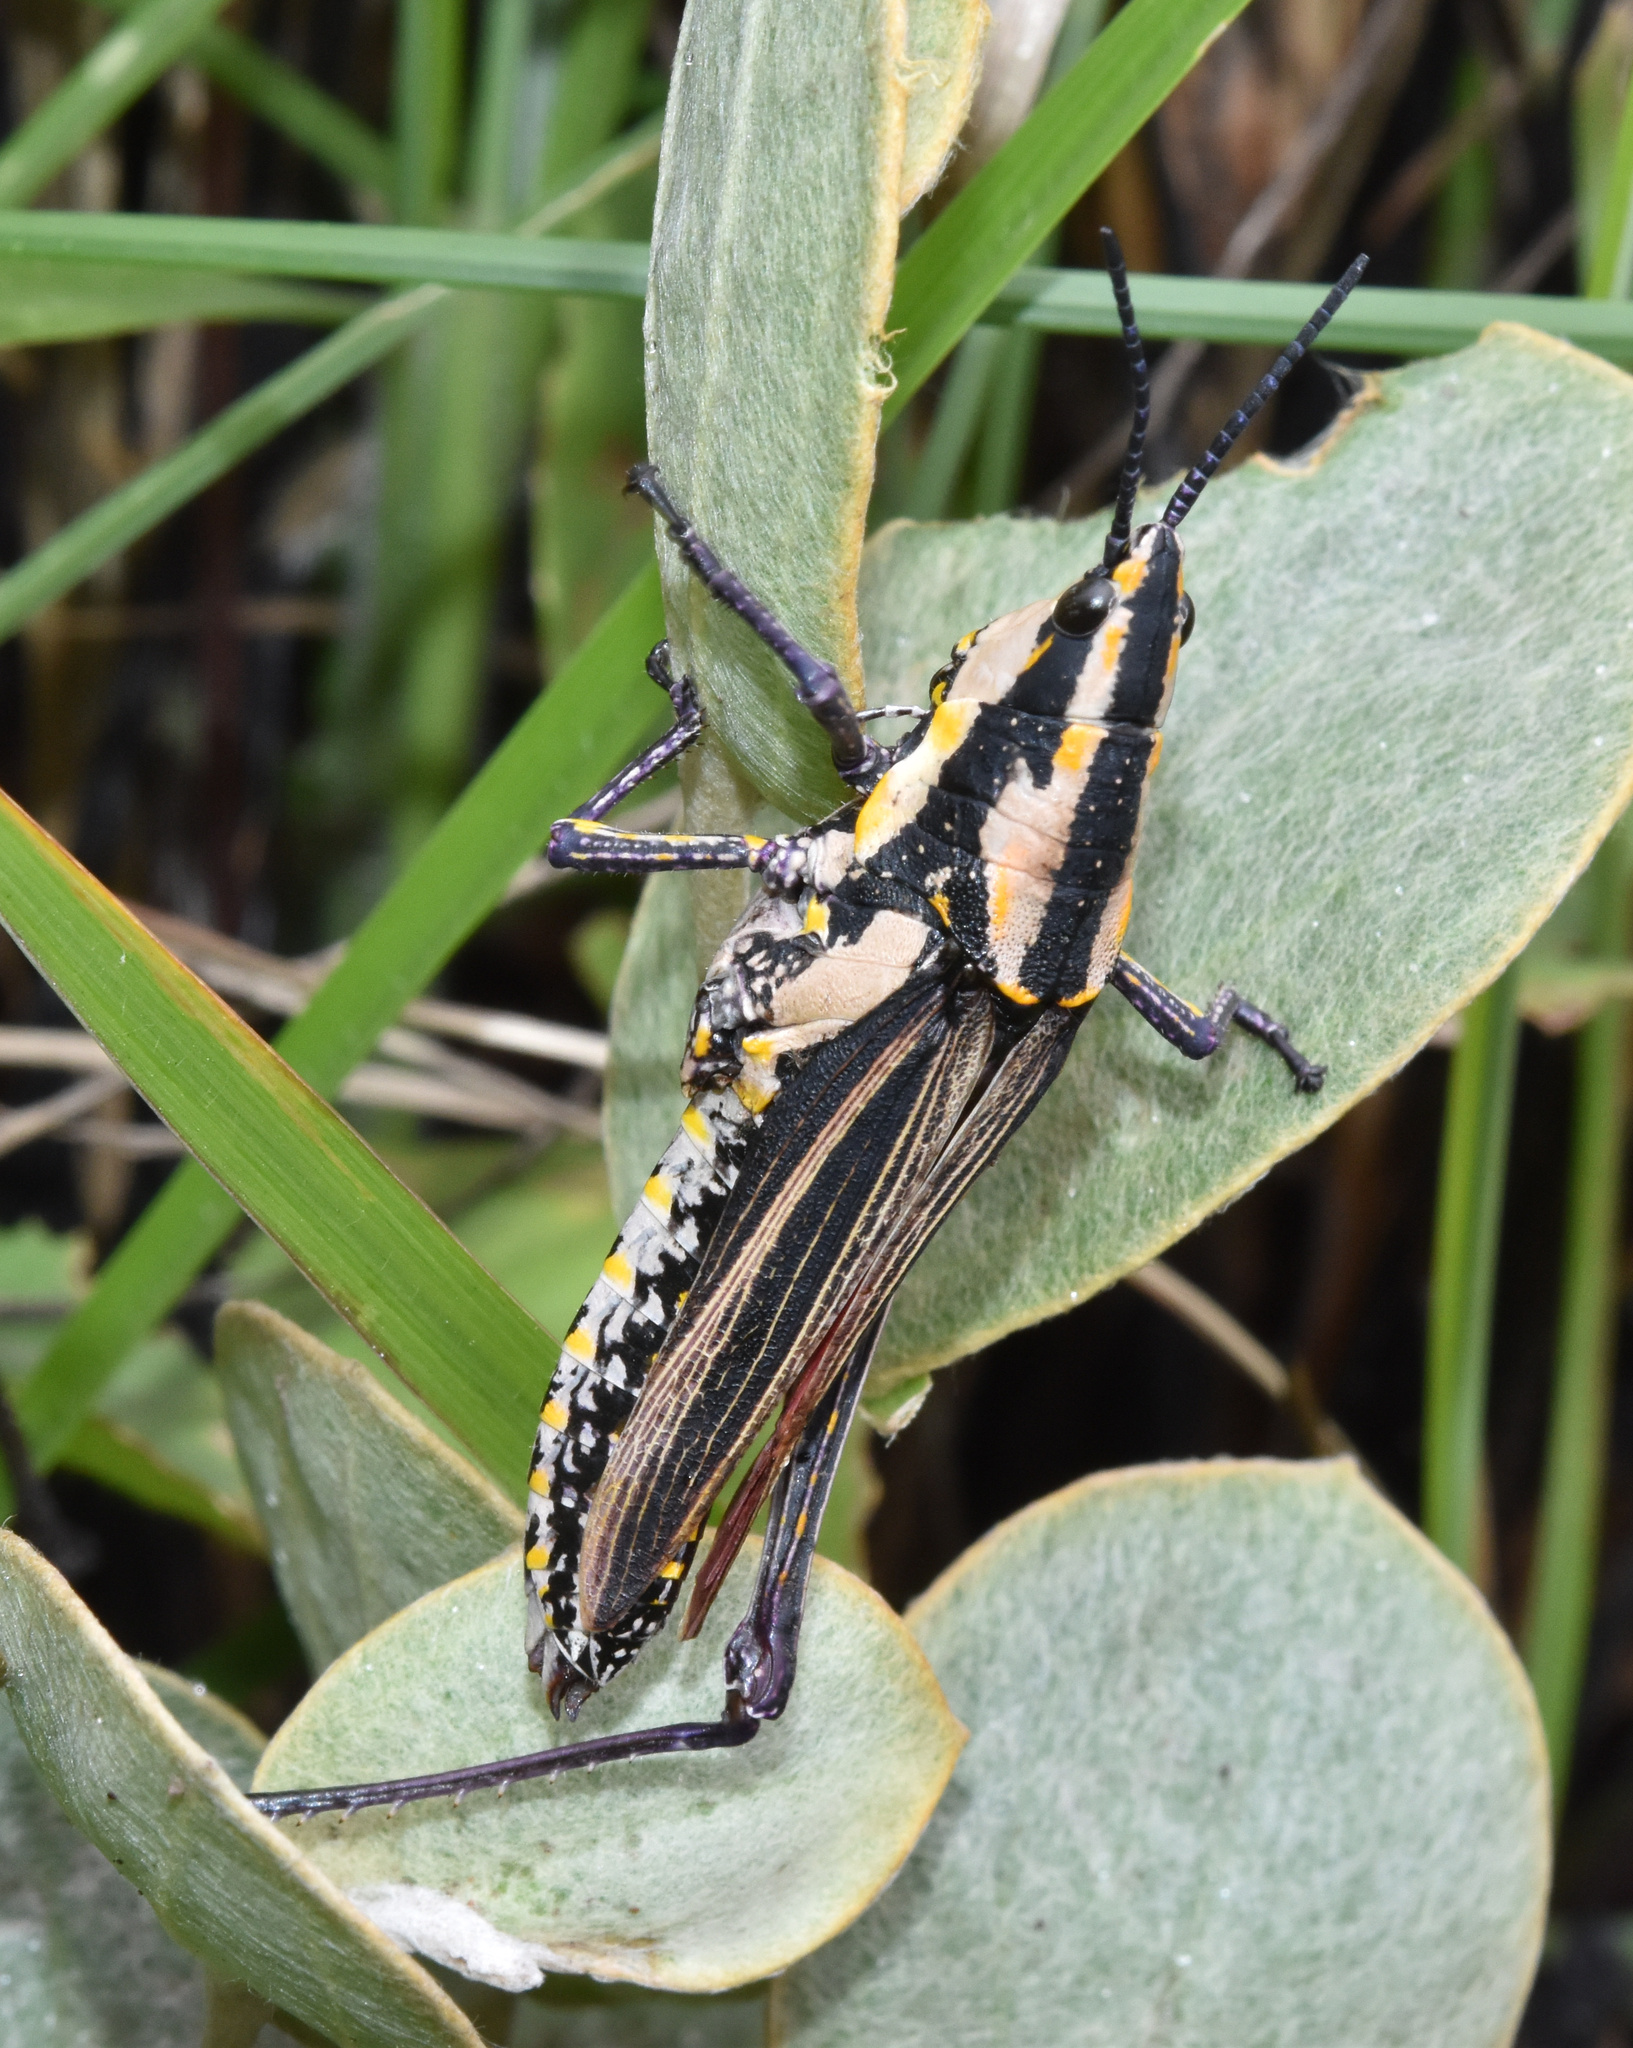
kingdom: Animalia
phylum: Arthropoda
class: Insecta
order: Orthoptera
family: Pyrgomorphidae
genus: Ochrophlebia
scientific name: Ochrophlebia cafra
